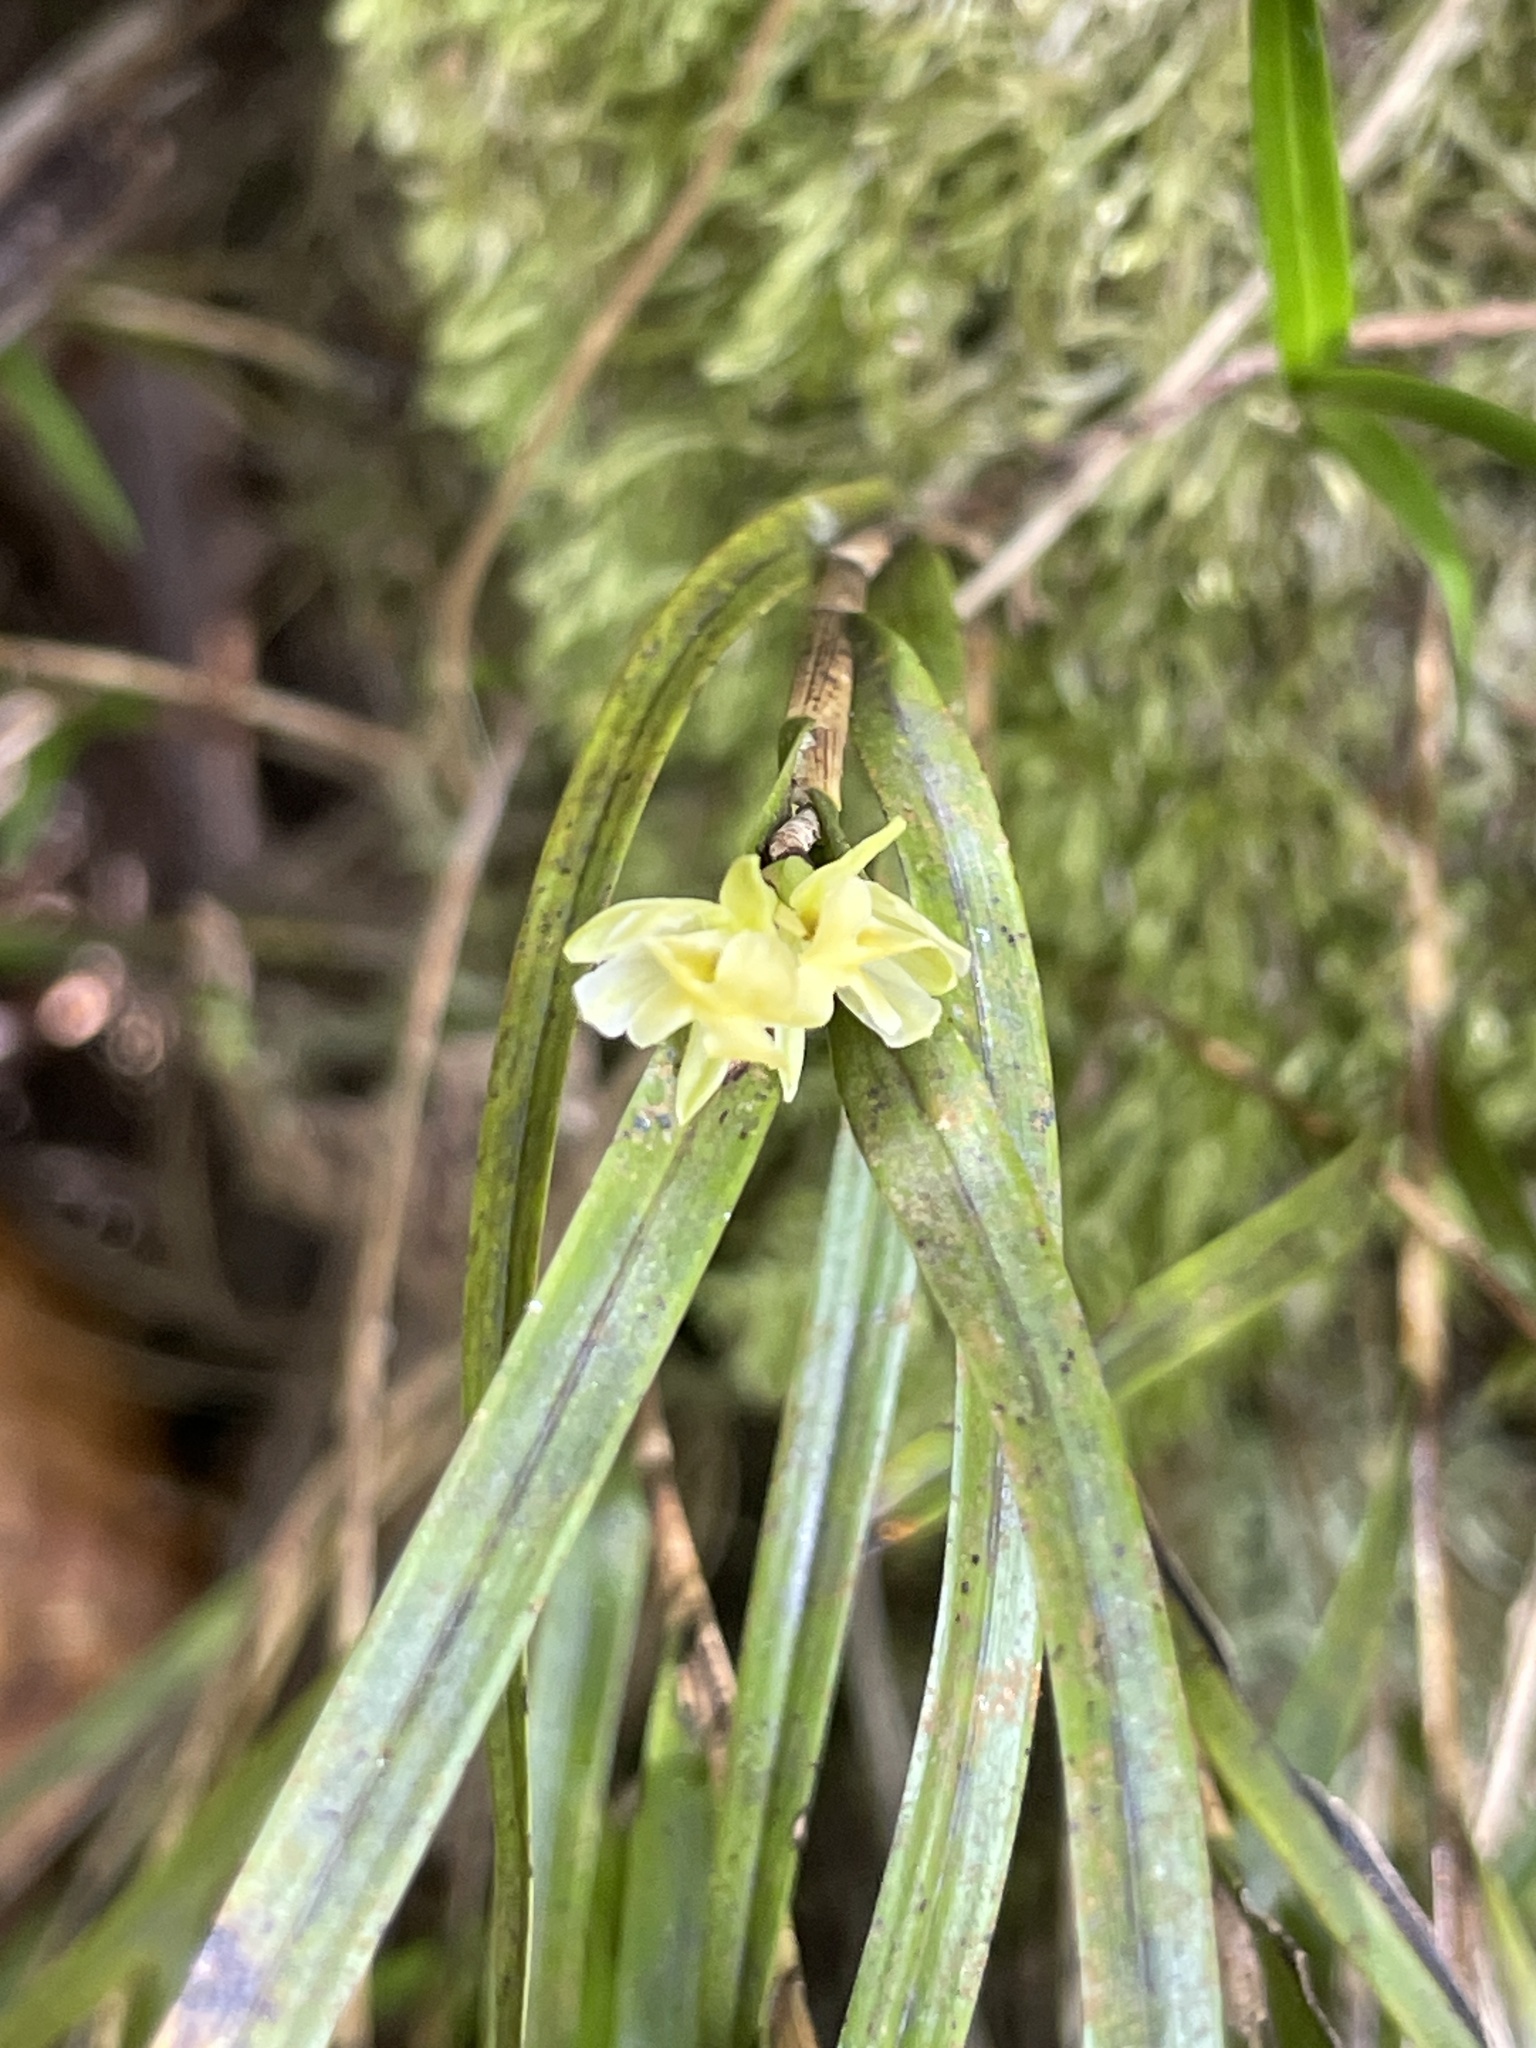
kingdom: Plantae
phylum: Tracheophyta
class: Liliopsida
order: Asparagales
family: Orchidaceae
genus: Earina
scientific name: Earina mucronata
